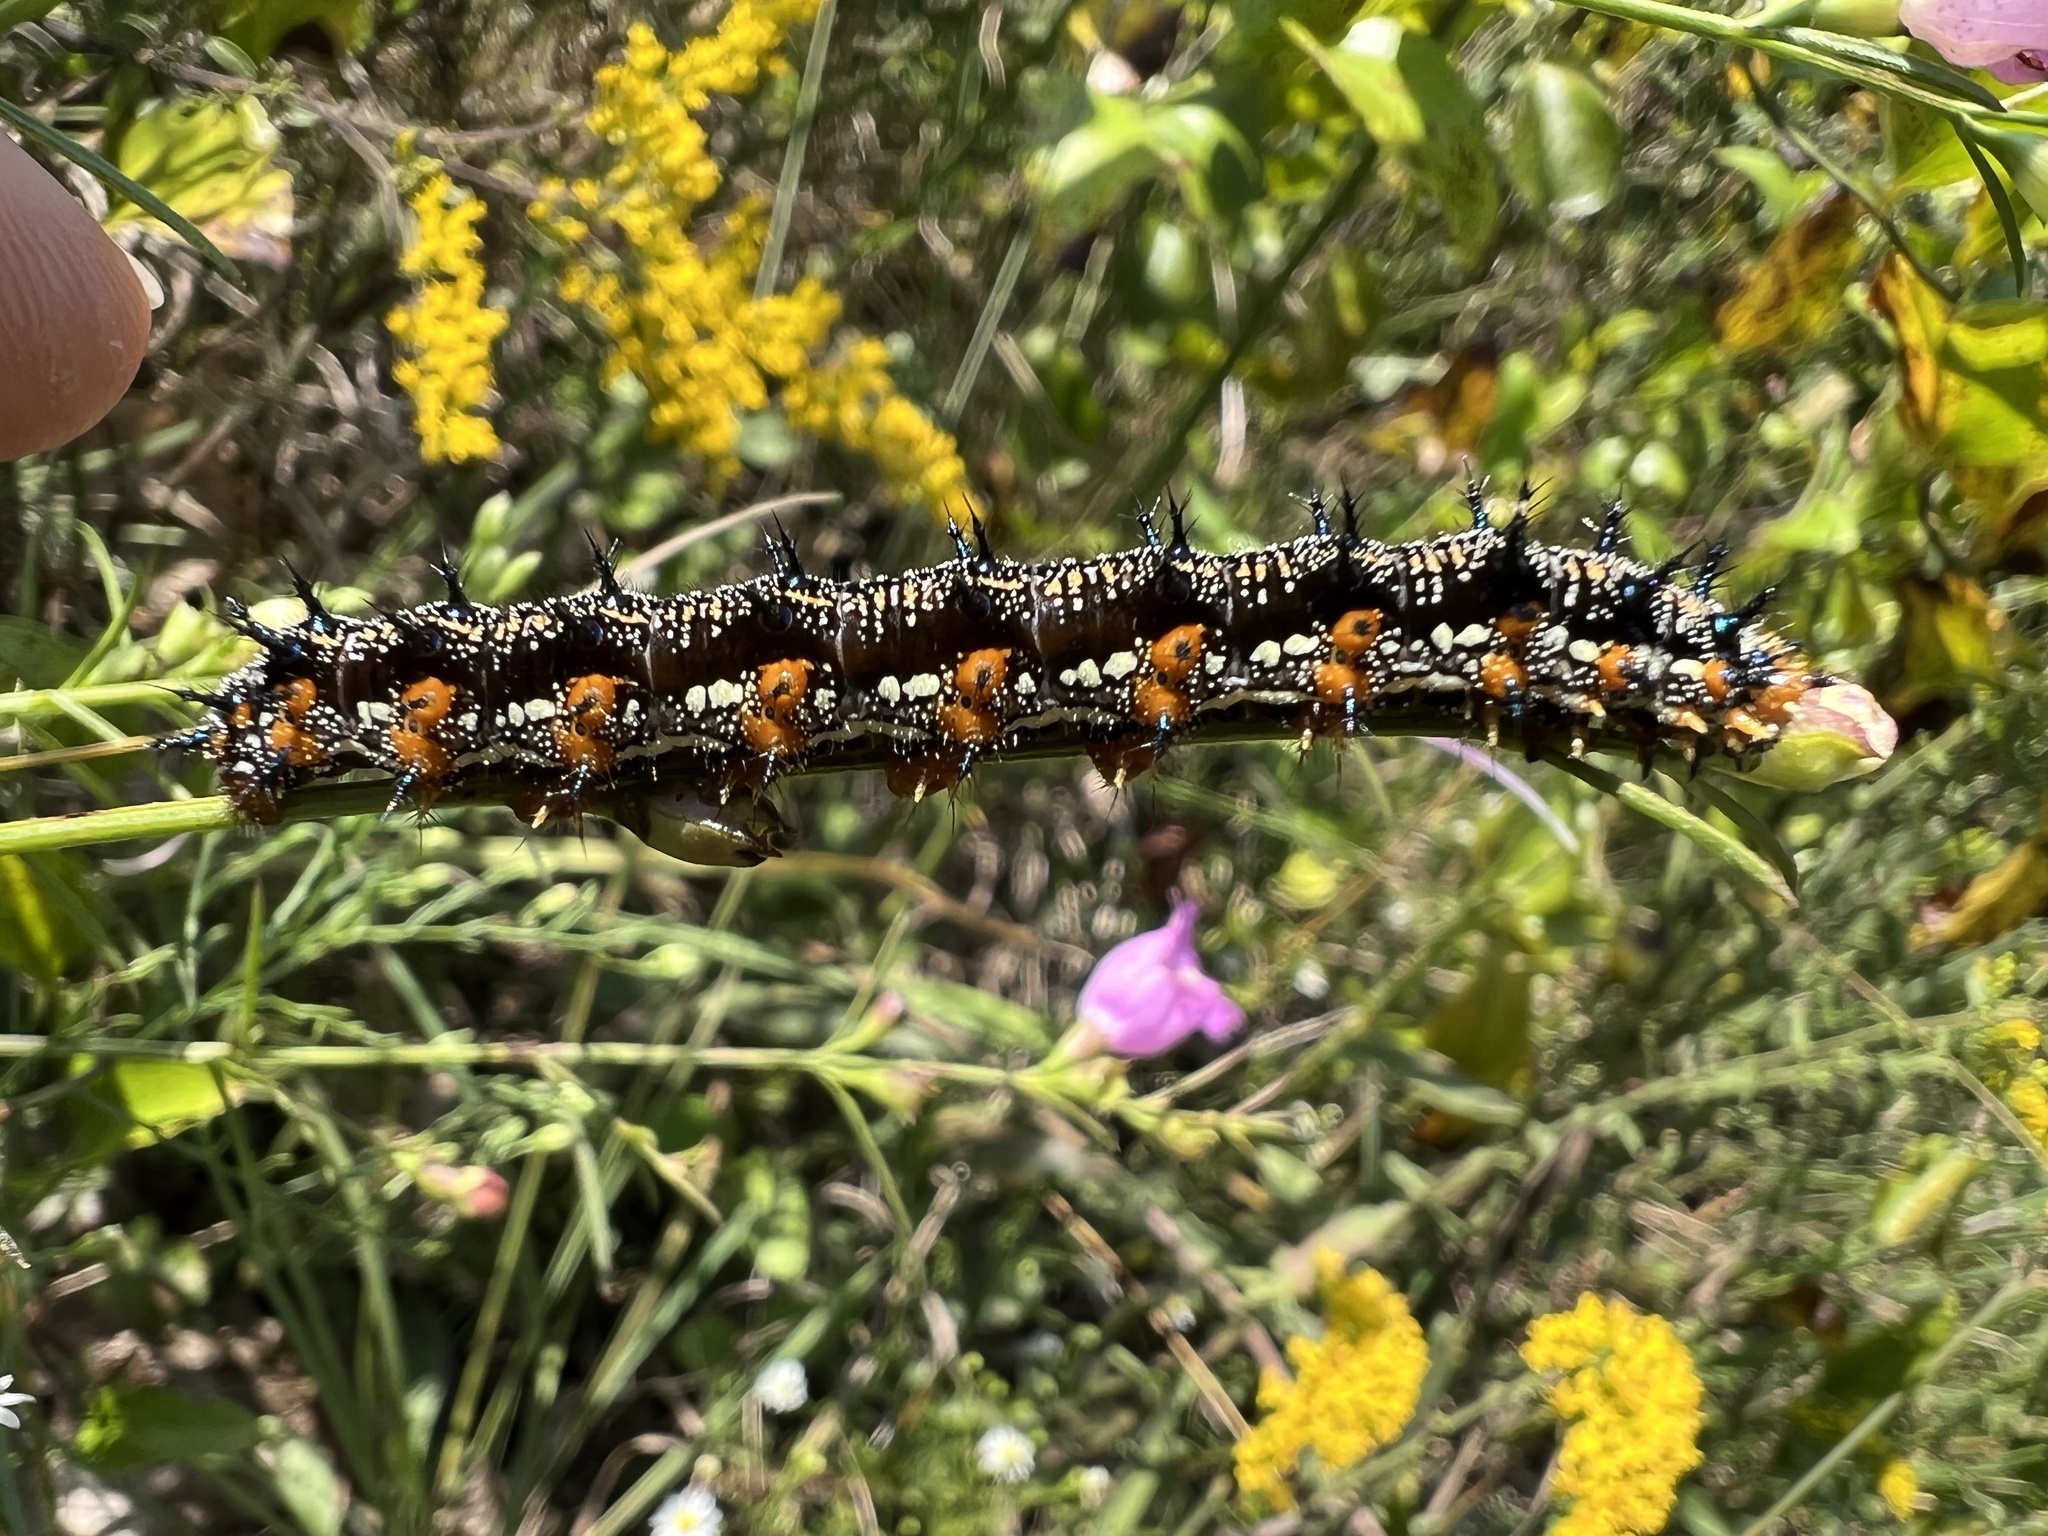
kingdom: Animalia
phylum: Arthropoda
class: Insecta
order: Lepidoptera
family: Nymphalidae
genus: Junonia
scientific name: Junonia coenia
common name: Common buckeye
